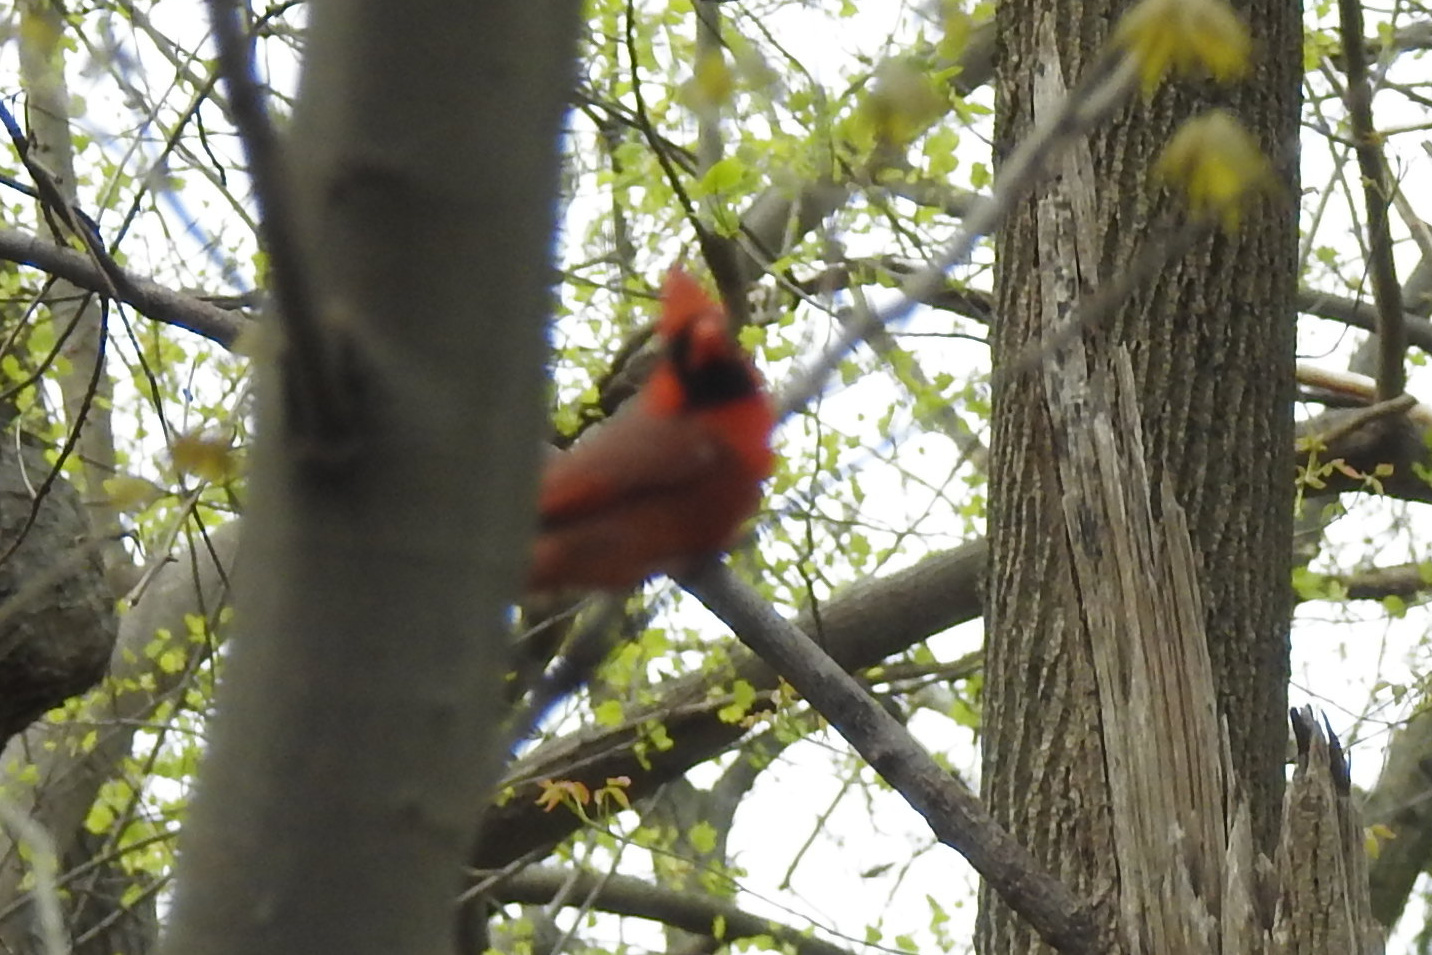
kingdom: Animalia
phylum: Chordata
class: Aves
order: Passeriformes
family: Cardinalidae
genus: Cardinalis
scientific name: Cardinalis cardinalis
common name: Northern cardinal
